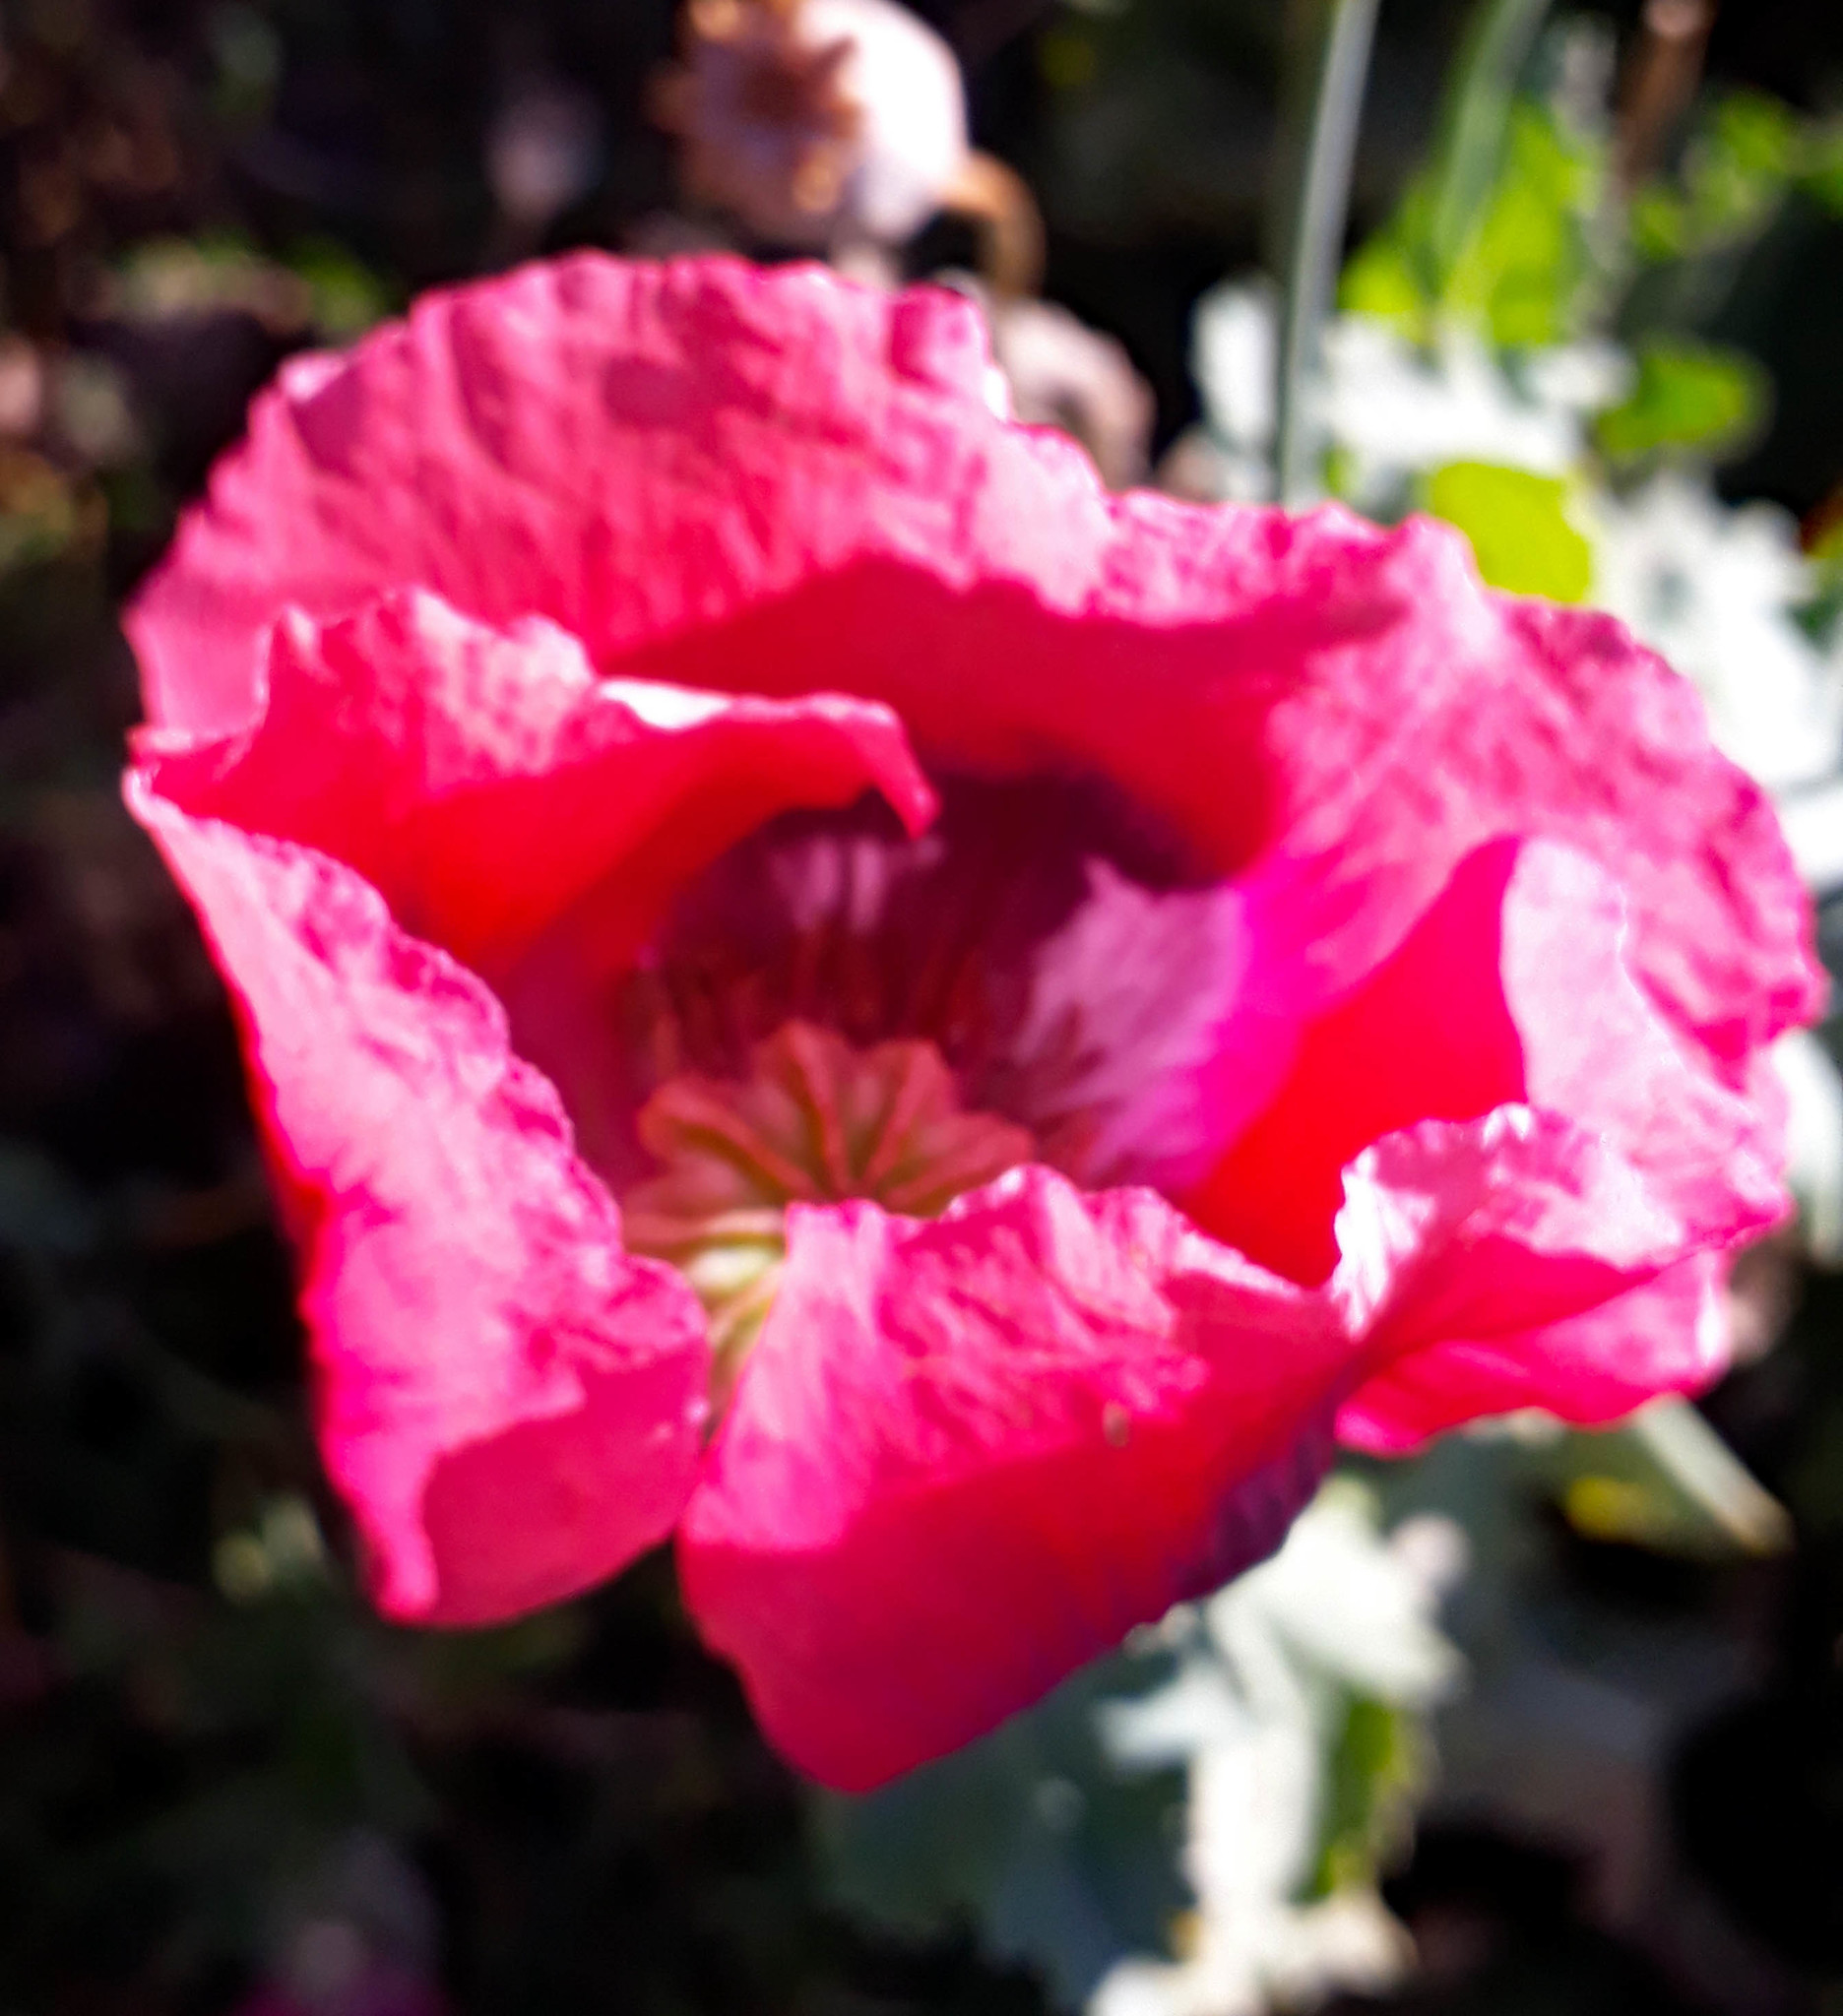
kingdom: Plantae
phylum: Tracheophyta
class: Magnoliopsida
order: Ranunculales
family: Papaveraceae
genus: Papaver
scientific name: Papaver somniferum
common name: Opium poppy
